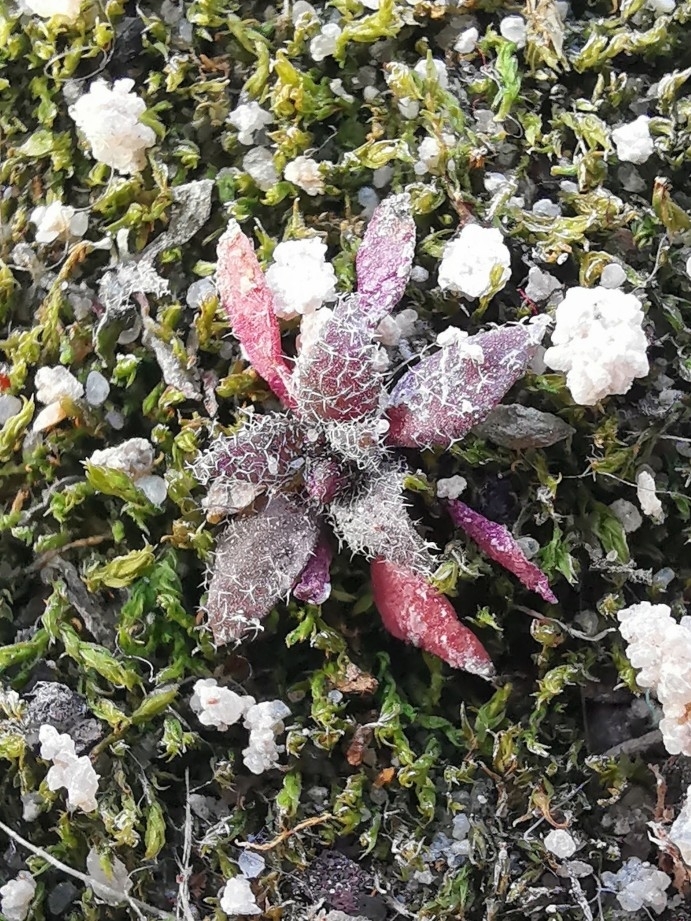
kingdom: Plantae
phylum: Tracheophyta
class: Magnoliopsida
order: Brassicales
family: Brassicaceae
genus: Draba
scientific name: Draba verna
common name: Spring draba
